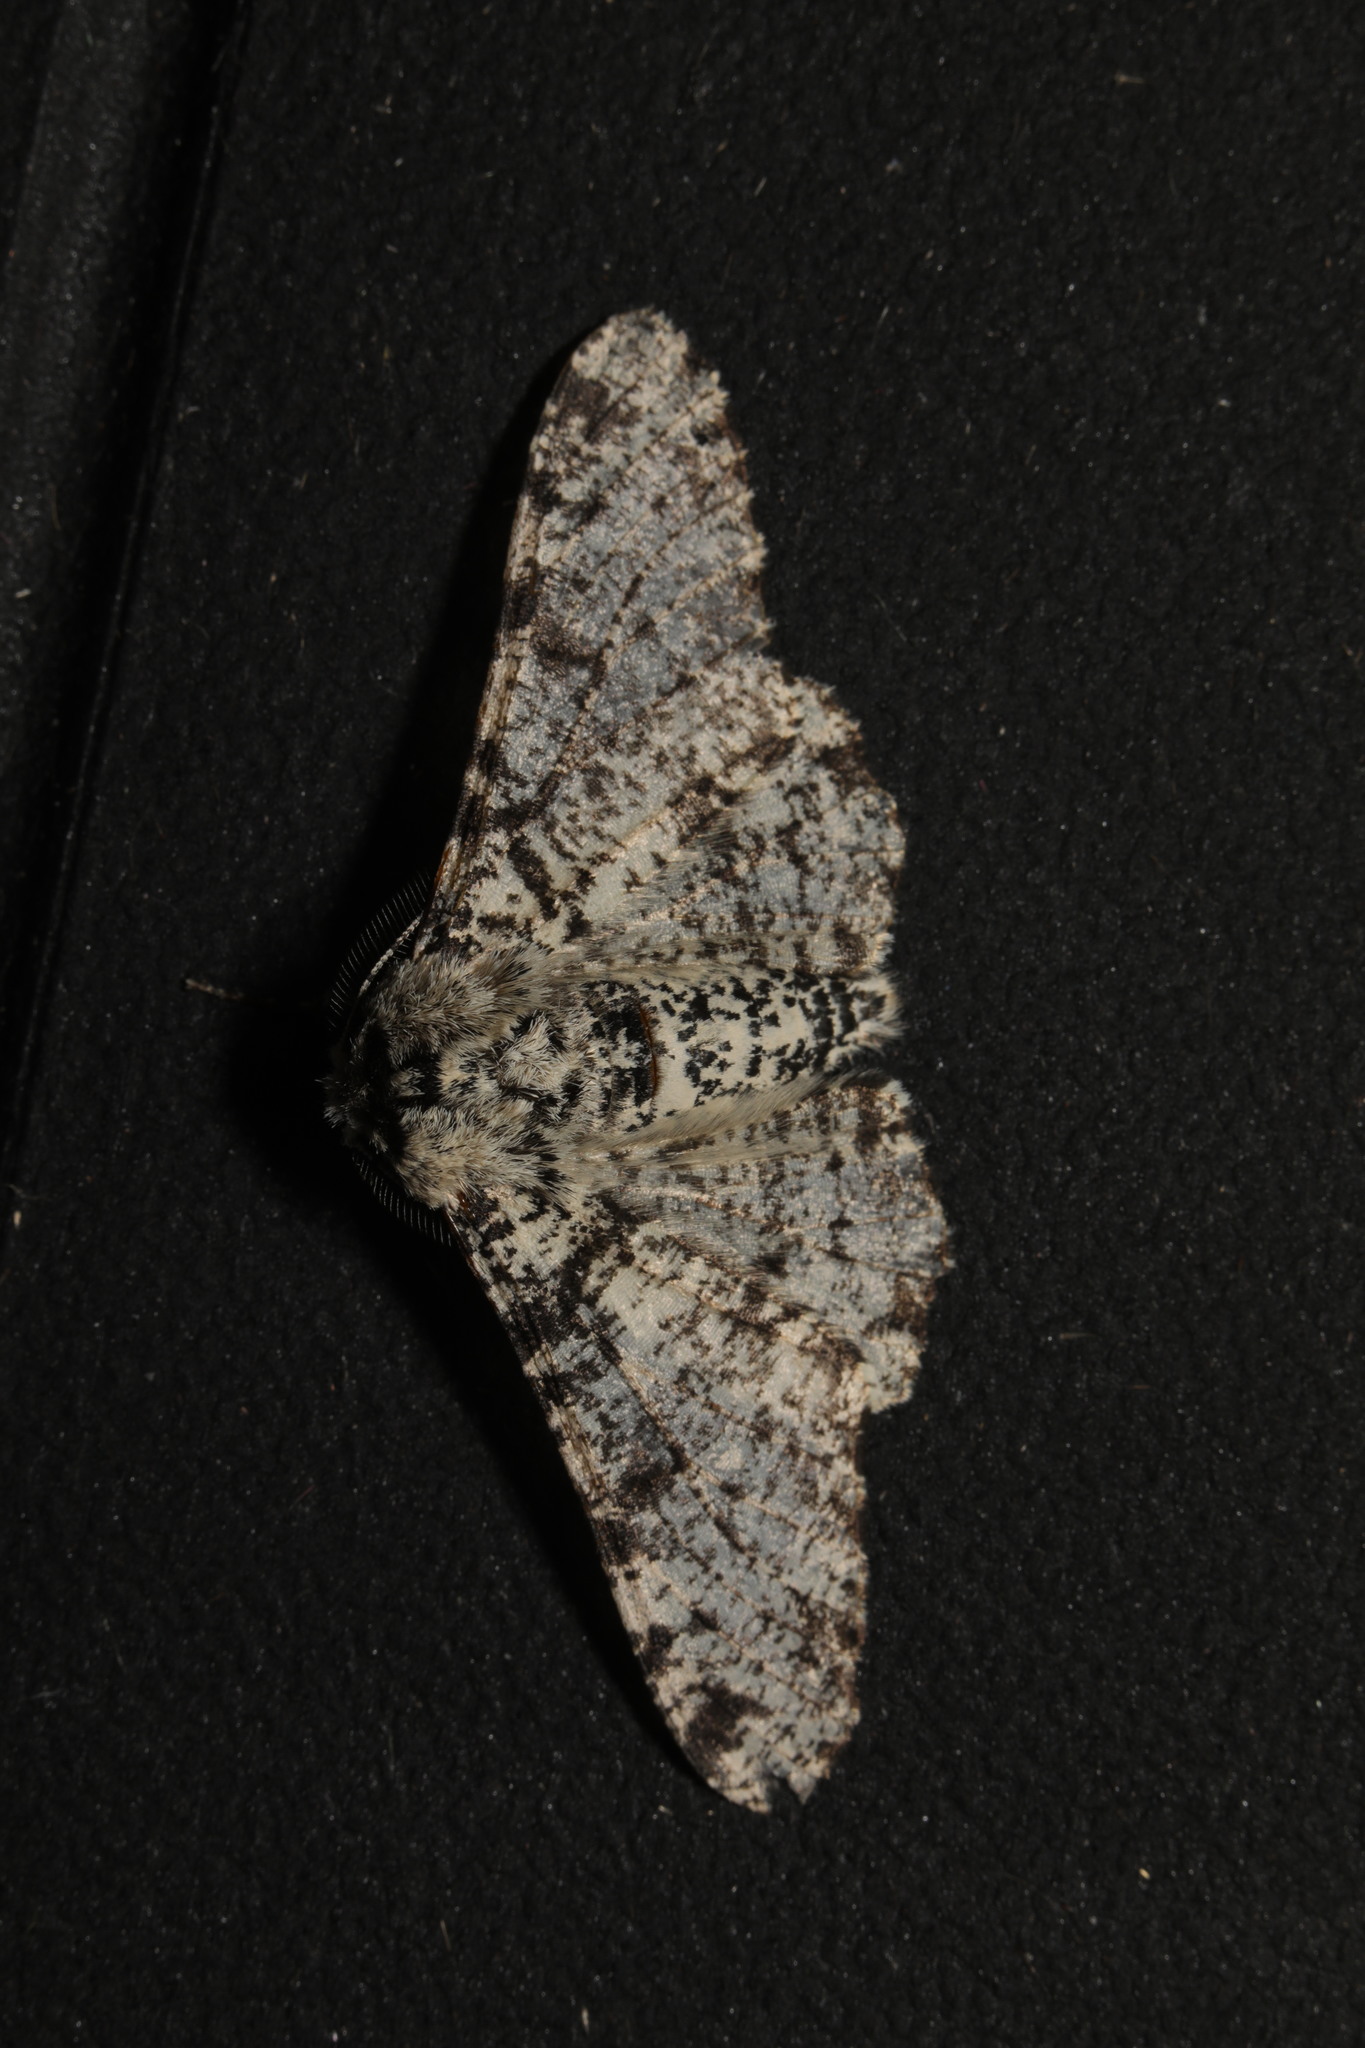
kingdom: Animalia
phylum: Arthropoda
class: Insecta
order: Lepidoptera
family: Geometridae
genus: Biston
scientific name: Biston betularia
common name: Peppered moth
